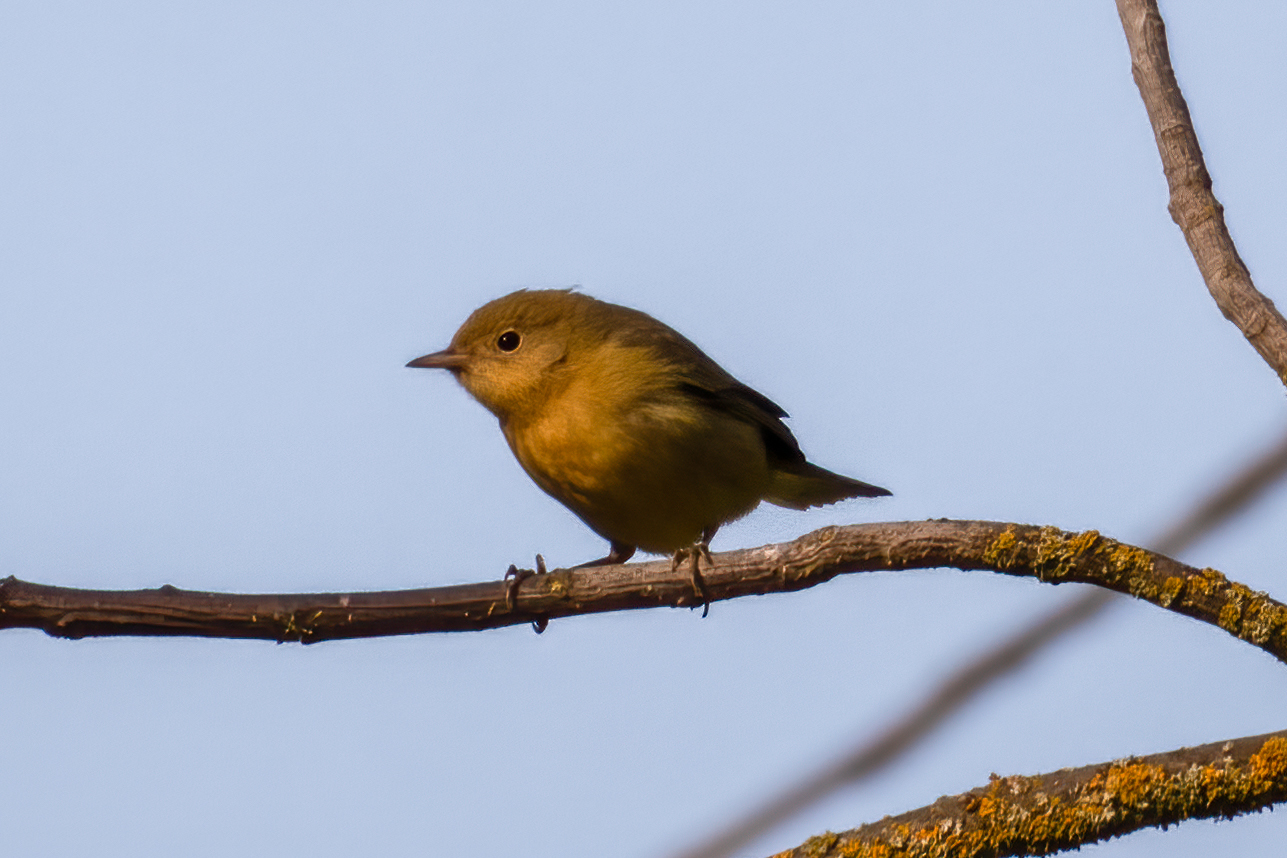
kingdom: Animalia
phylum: Chordata
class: Aves
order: Passeriformes
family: Parulidae
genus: Setophaga
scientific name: Setophaga petechia
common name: Yellow warbler
